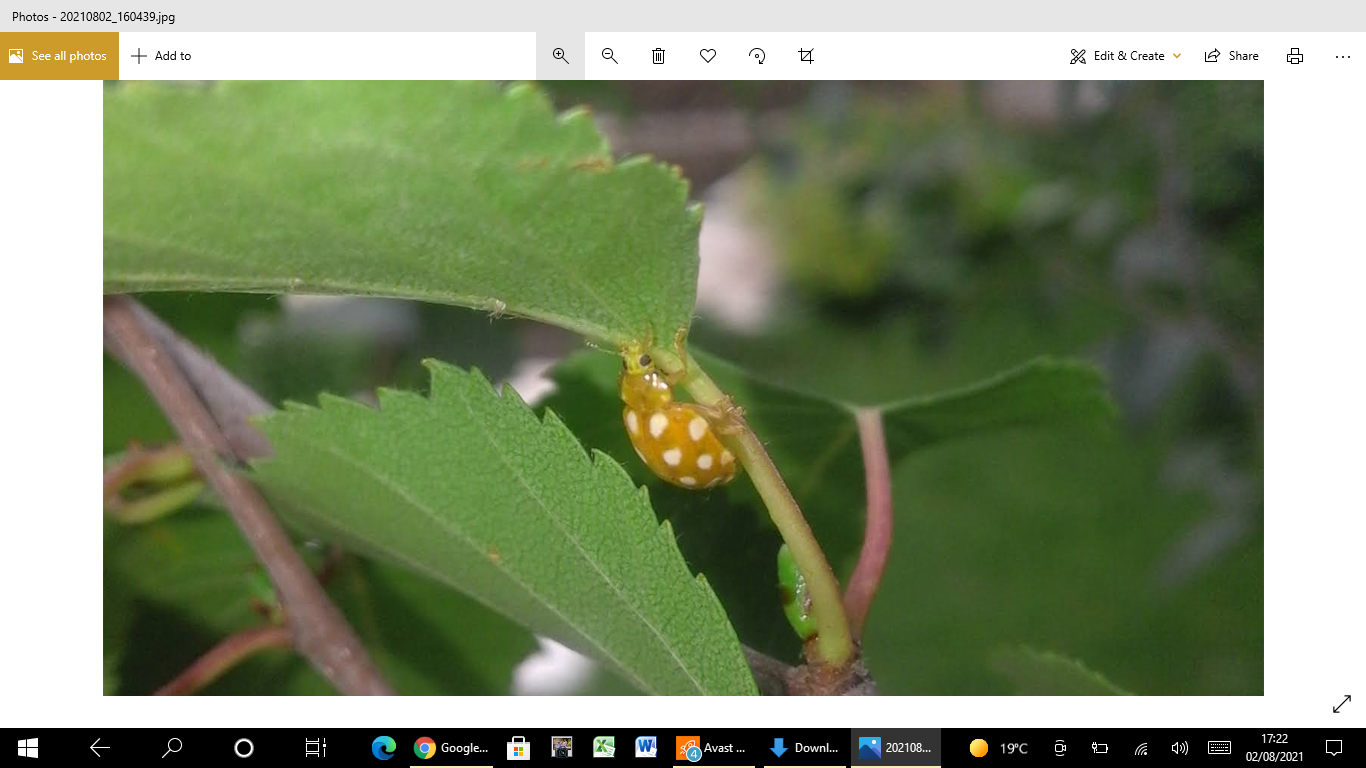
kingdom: Animalia
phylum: Arthropoda
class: Insecta
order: Coleoptera
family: Coccinellidae
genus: Halyzia
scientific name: Halyzia sedecimguttata
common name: Orange ladybird
